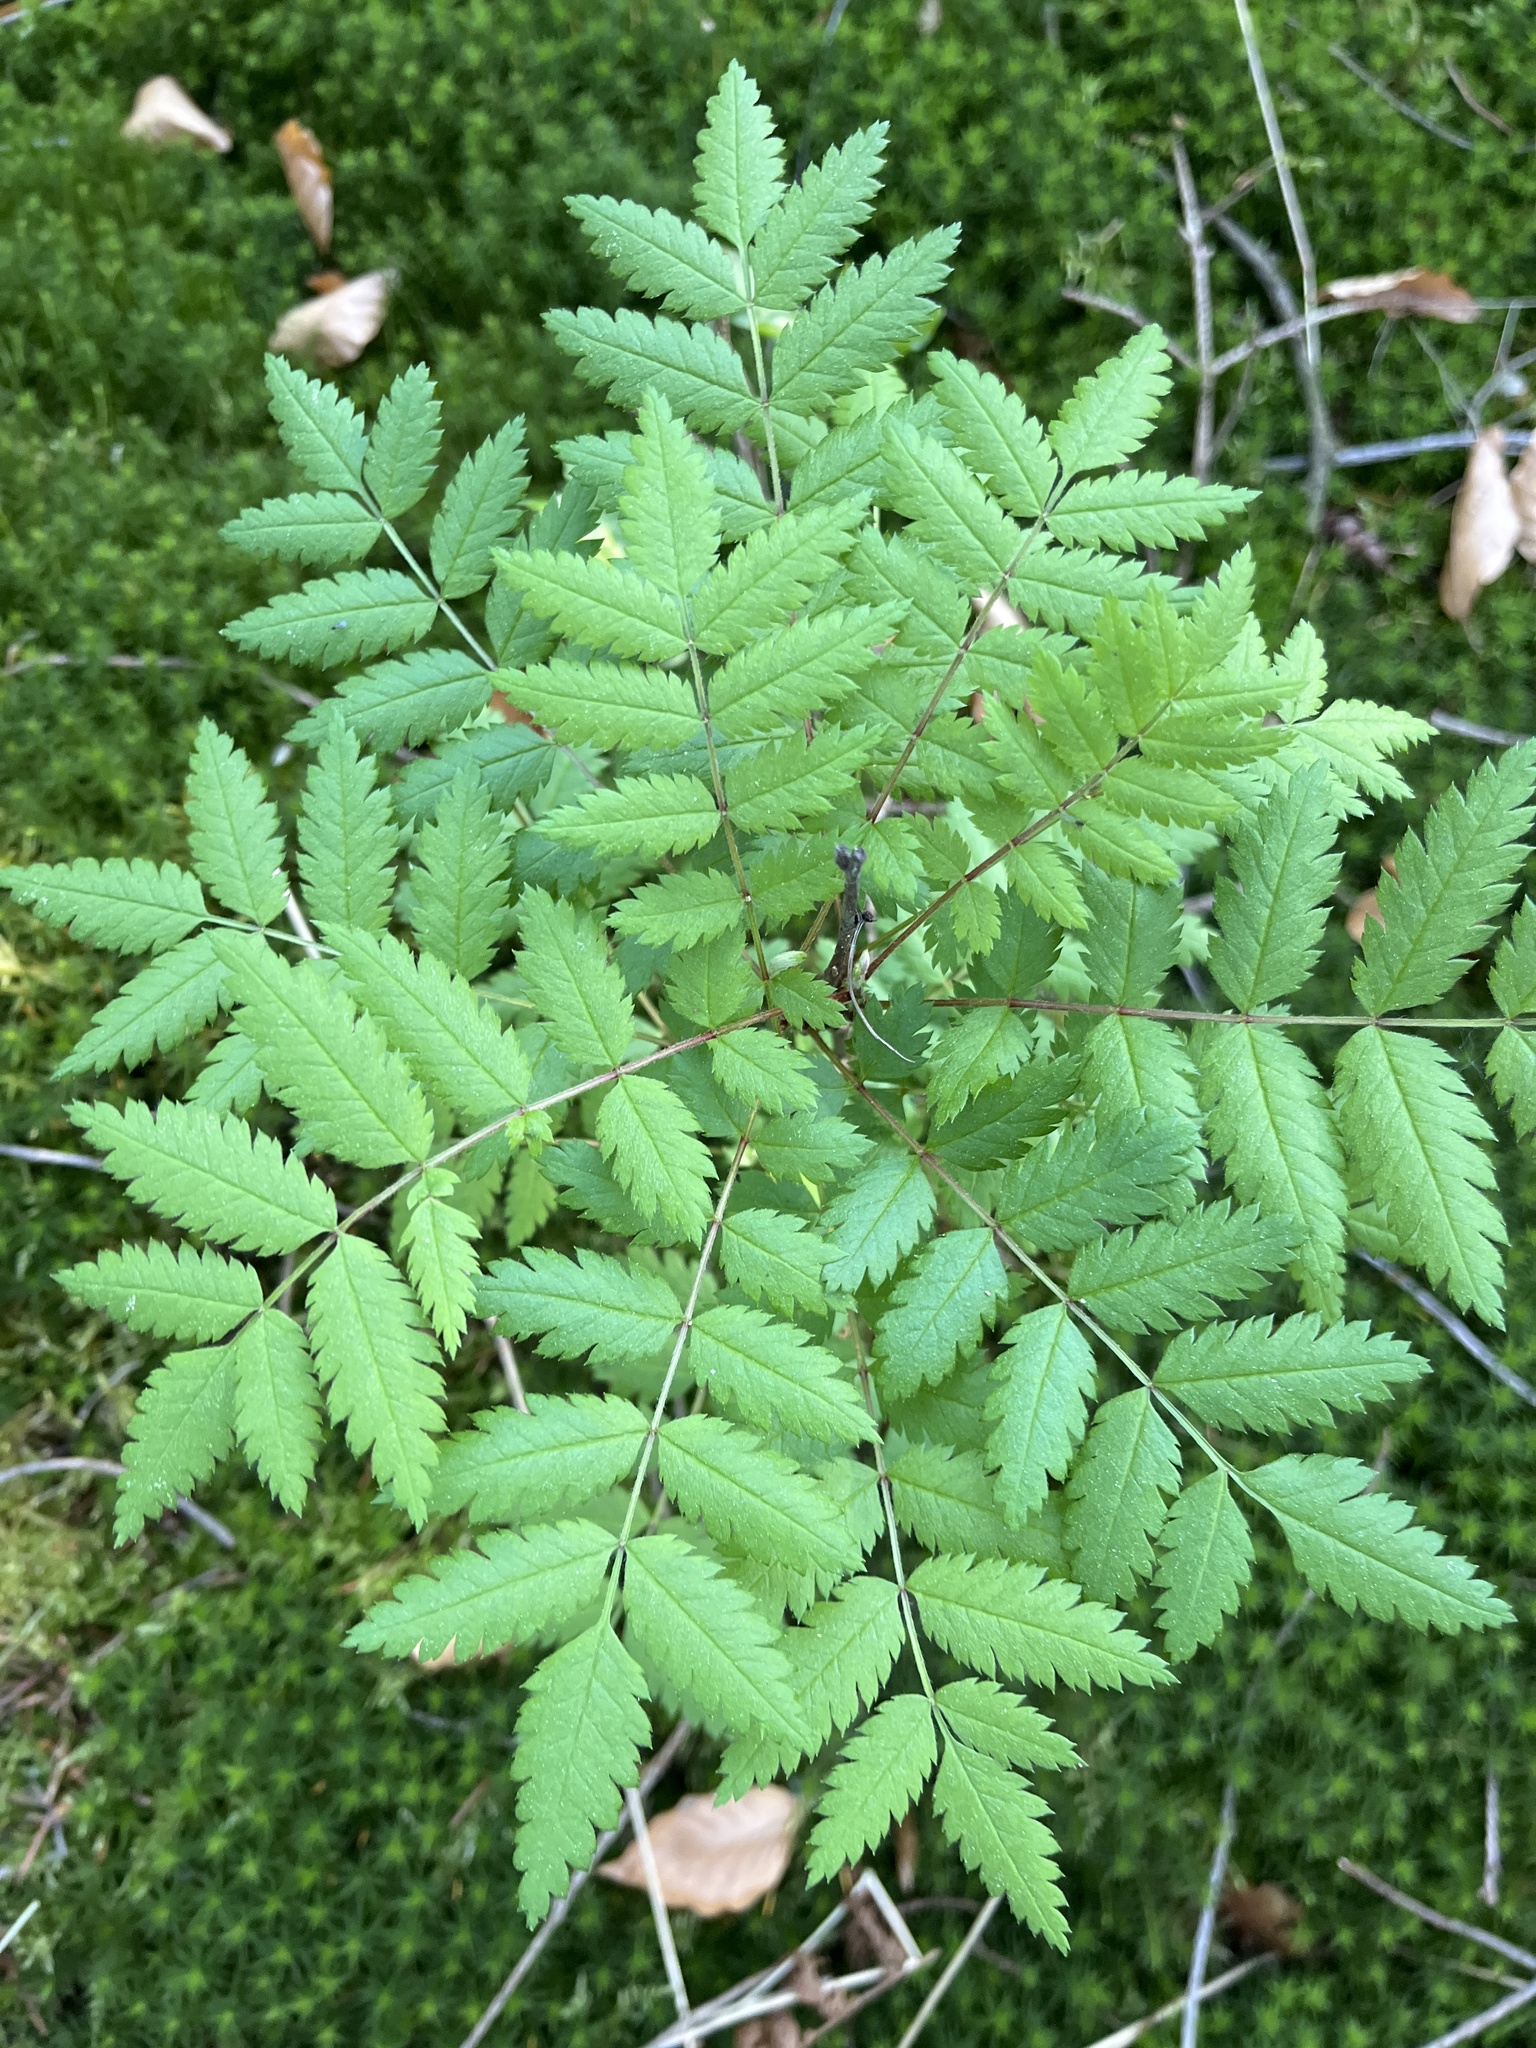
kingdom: Plantae
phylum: Tracheophyta
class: Magnoliopsida
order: Rosales
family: Rosaceae
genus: Sorbus
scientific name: Sorbus aucuparia
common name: Rowan
